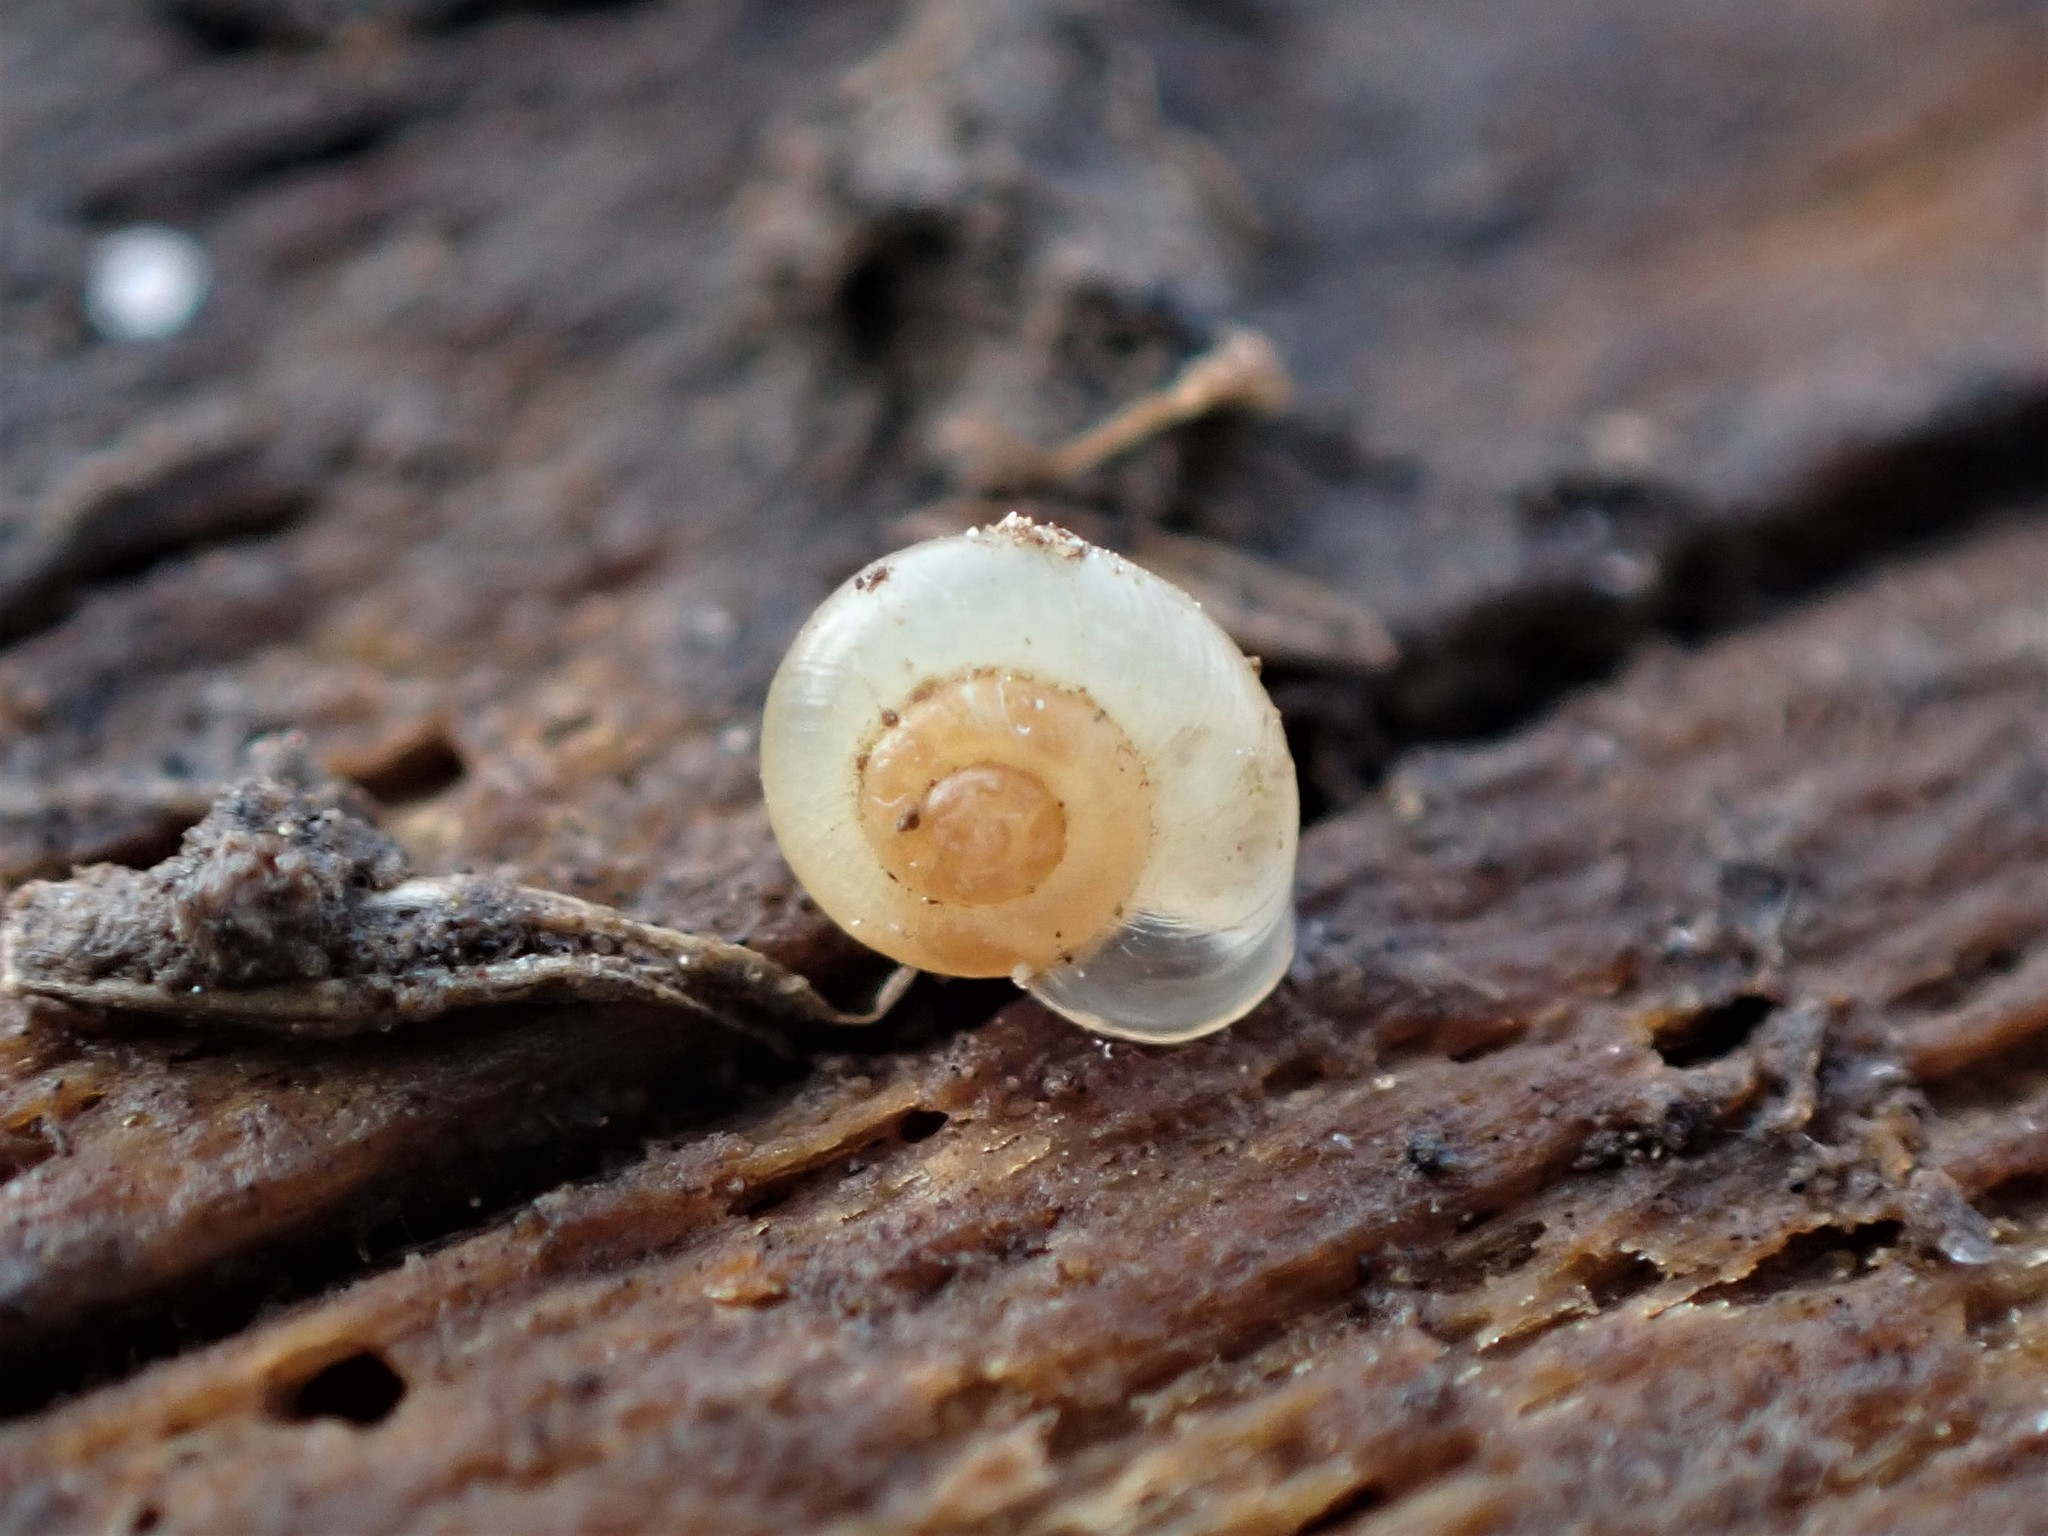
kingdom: Animalia
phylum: Mollusca
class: Gastropoda
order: Stylommatophora
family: Valloniidae
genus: Vallonia
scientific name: Vallonia excentrica
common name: Eccentric grass snail
